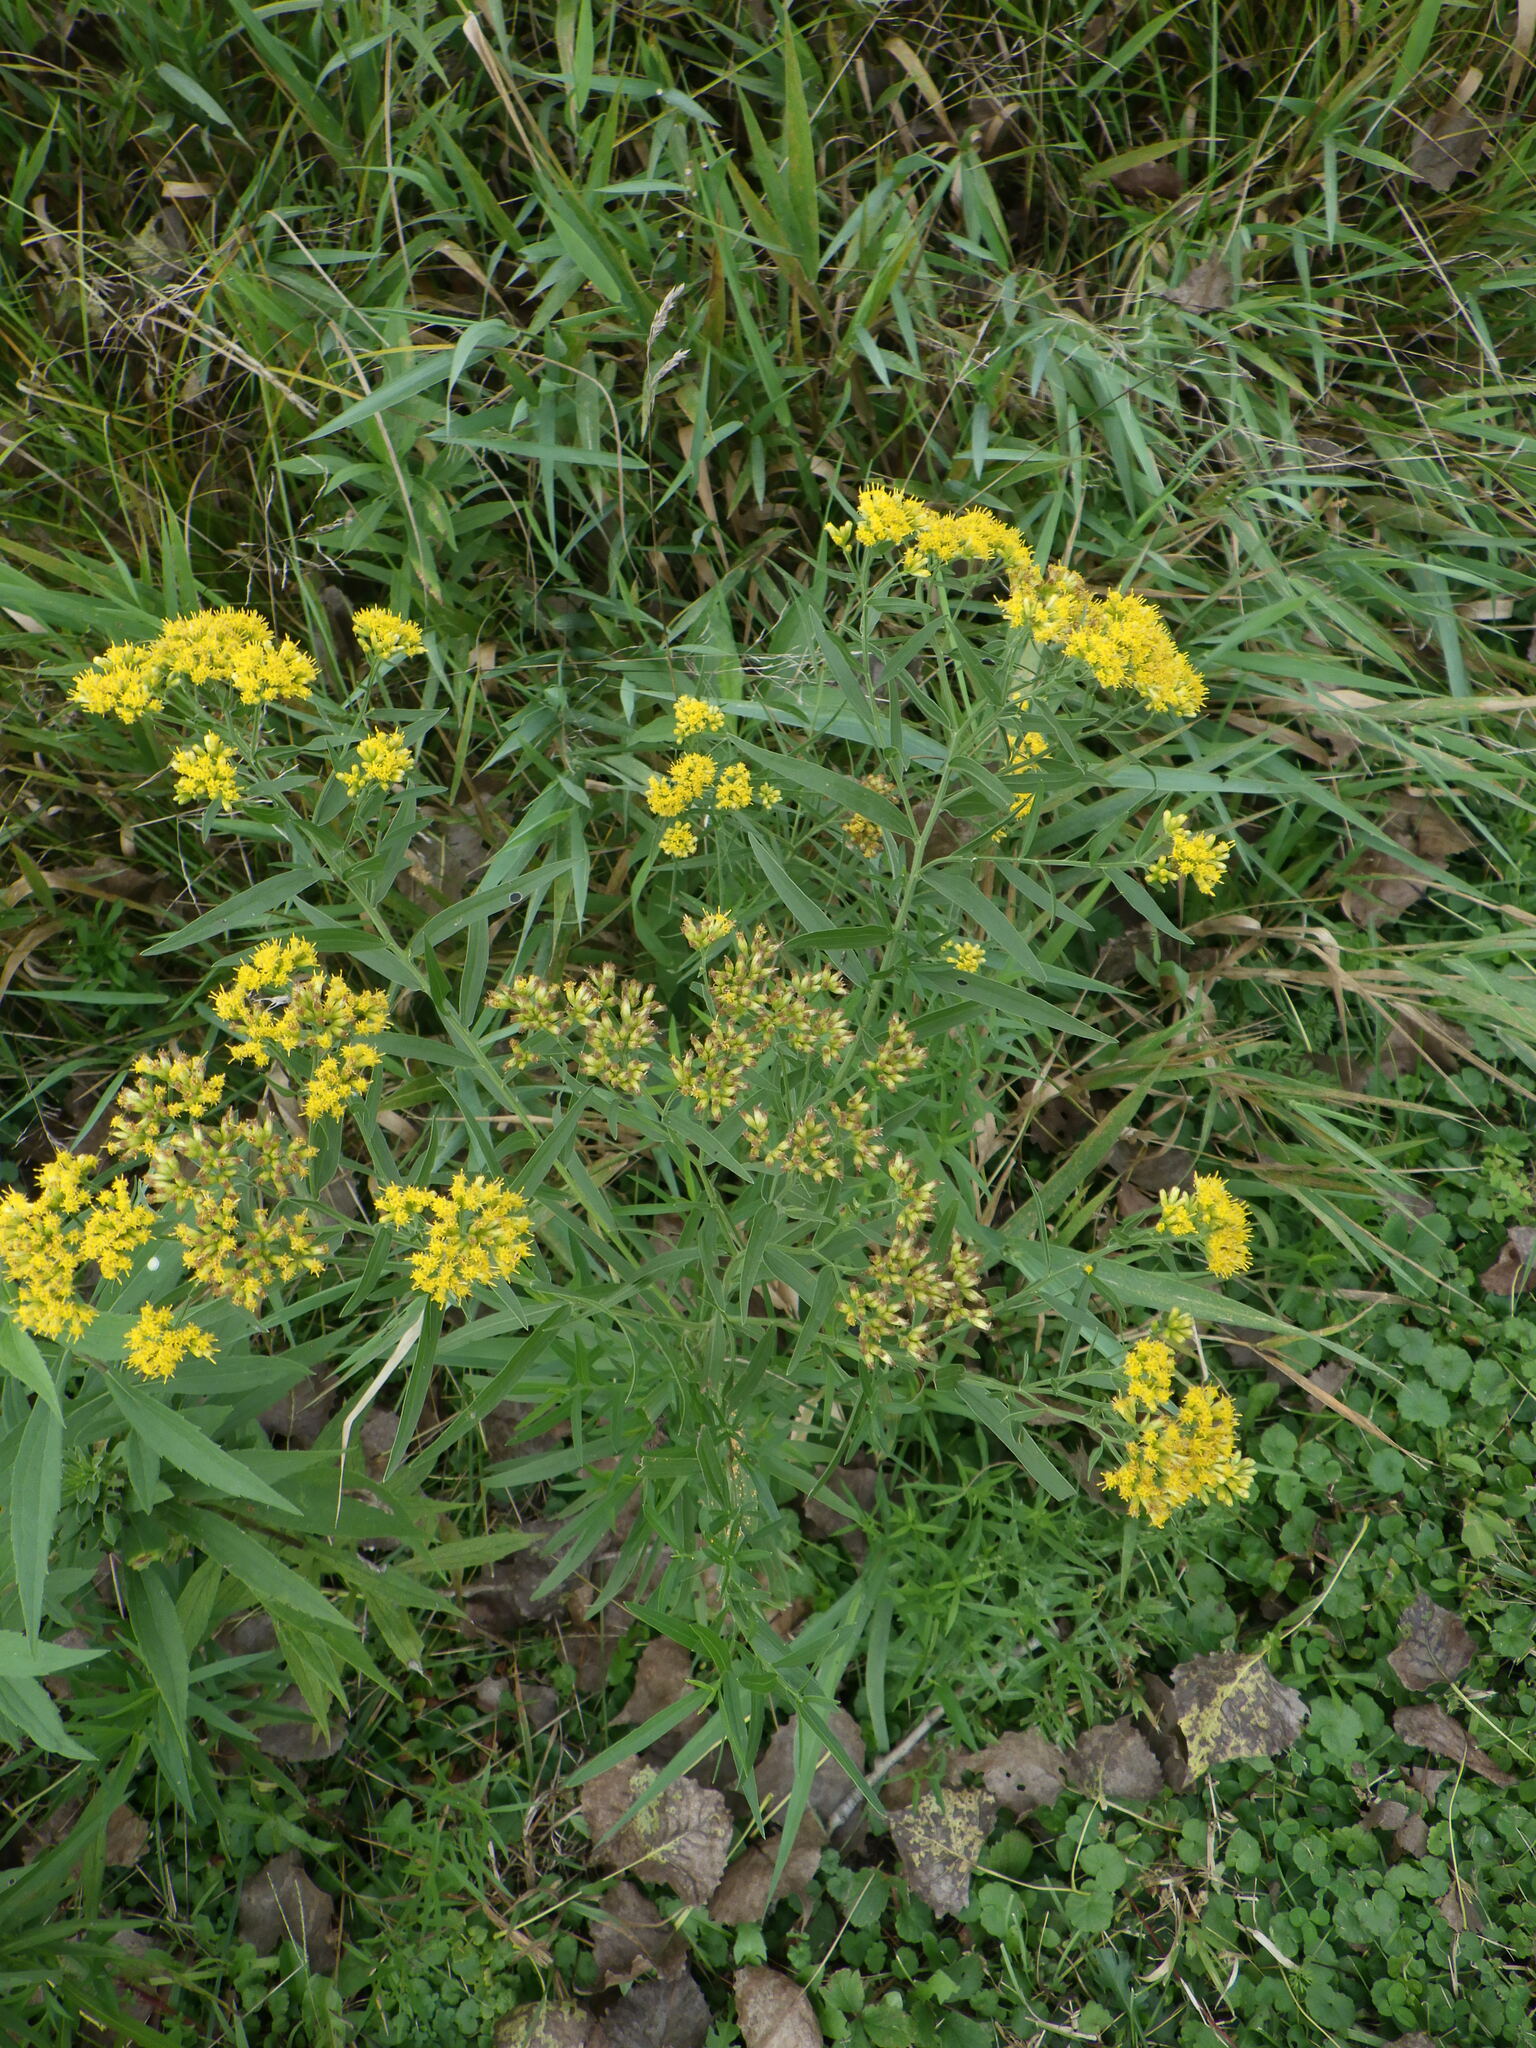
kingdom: Plantae
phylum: Tracheophyta
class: Magnoliopsida
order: Asterales
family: Asteraceae
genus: Euthamia
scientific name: Euthamia graminifolia
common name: Common goldentop
